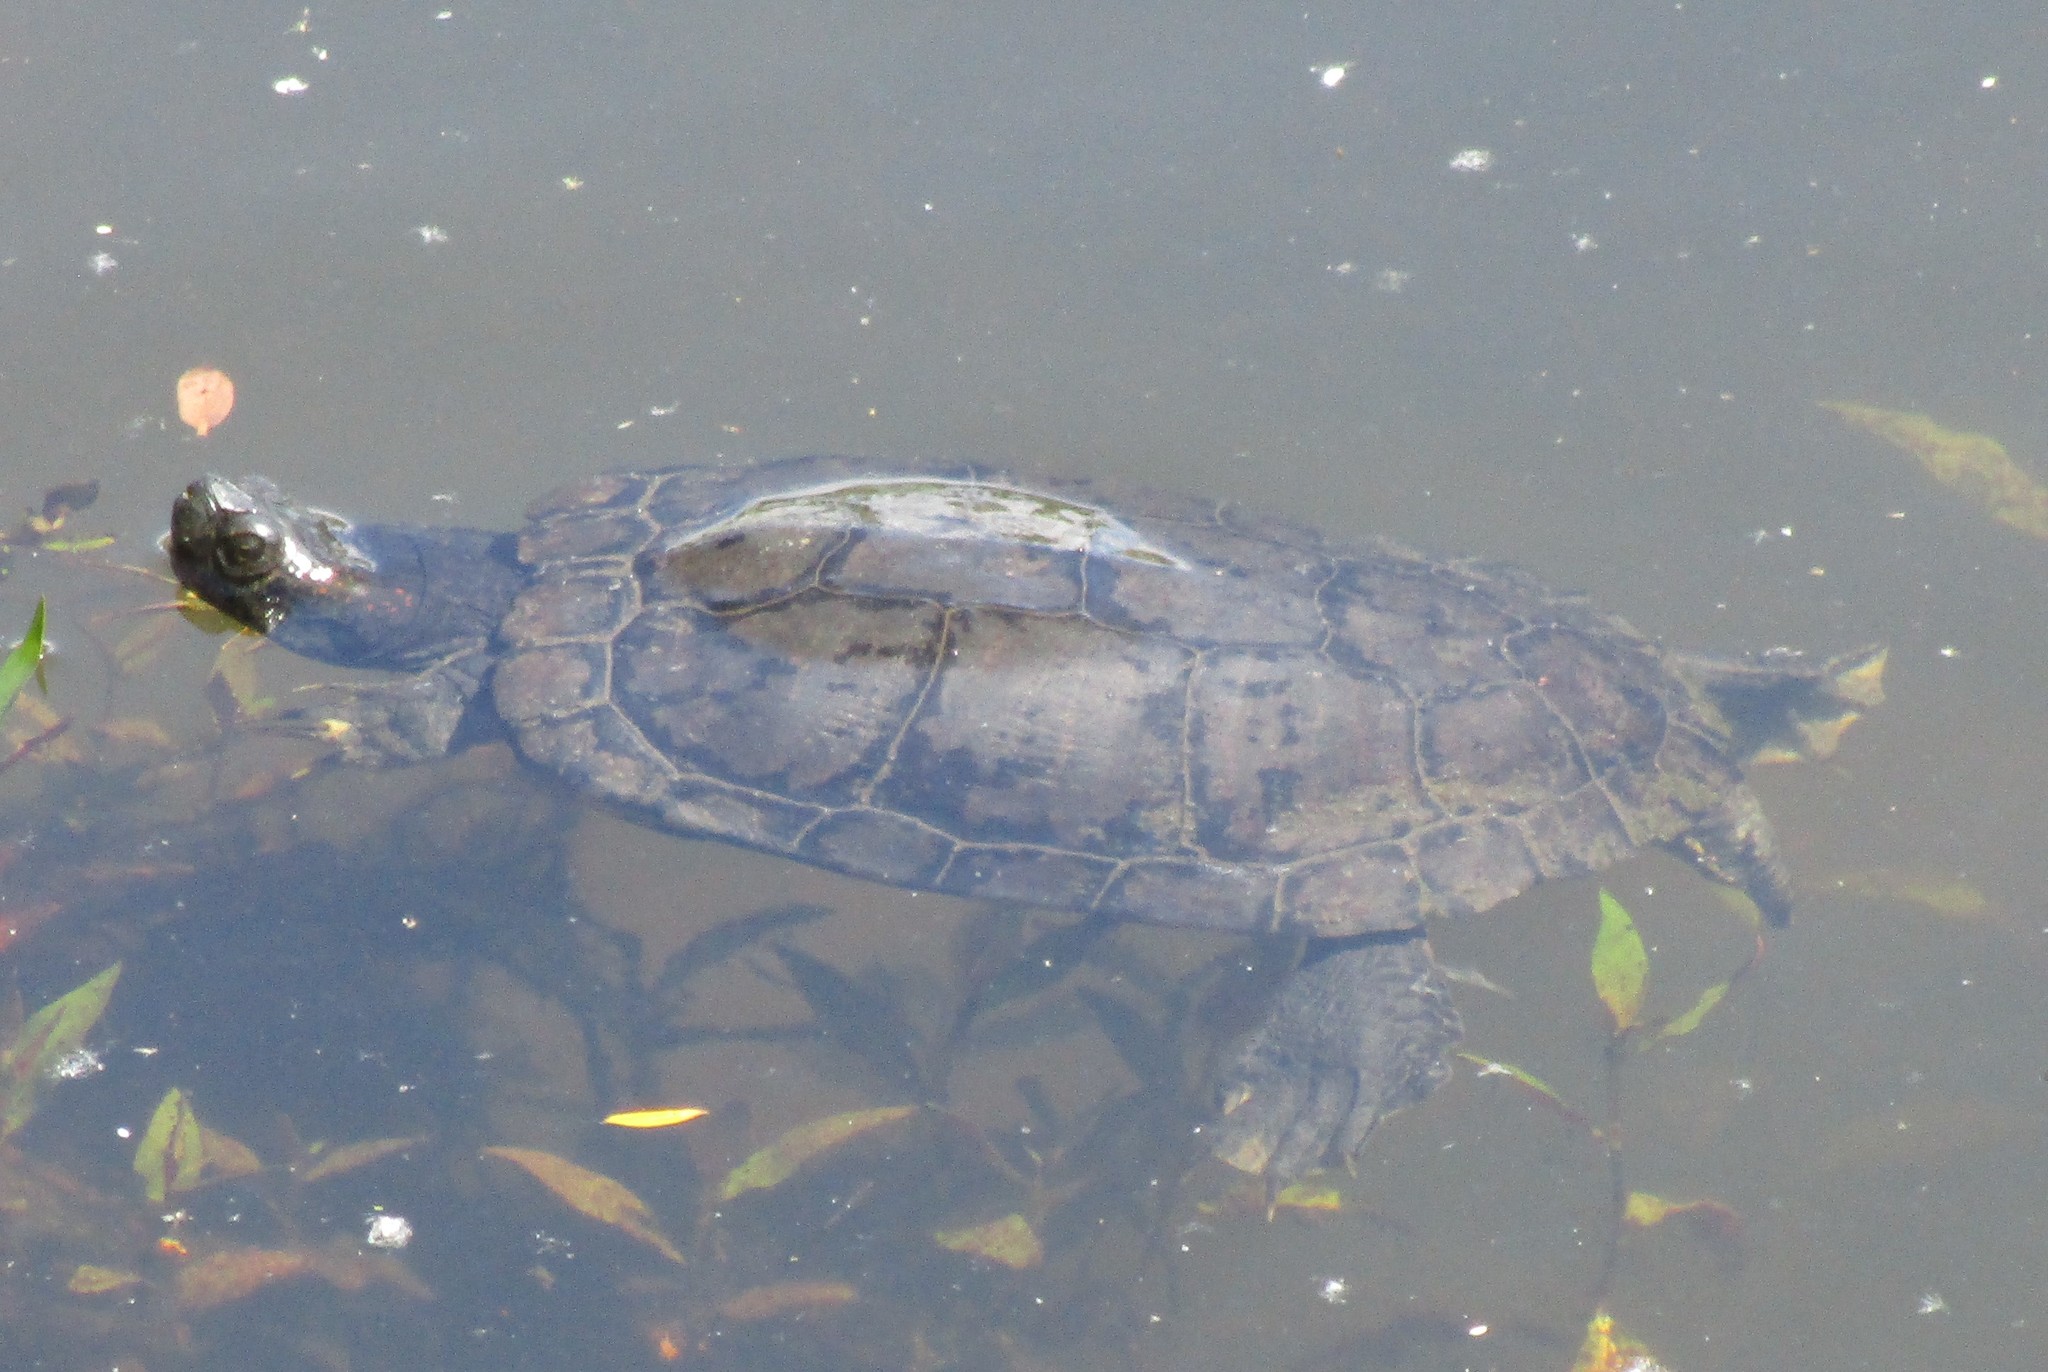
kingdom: Animalia
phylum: Chordata
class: Testudines
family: Emydidae
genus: Trachemys
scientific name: Trachemys scripta
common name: Slider
